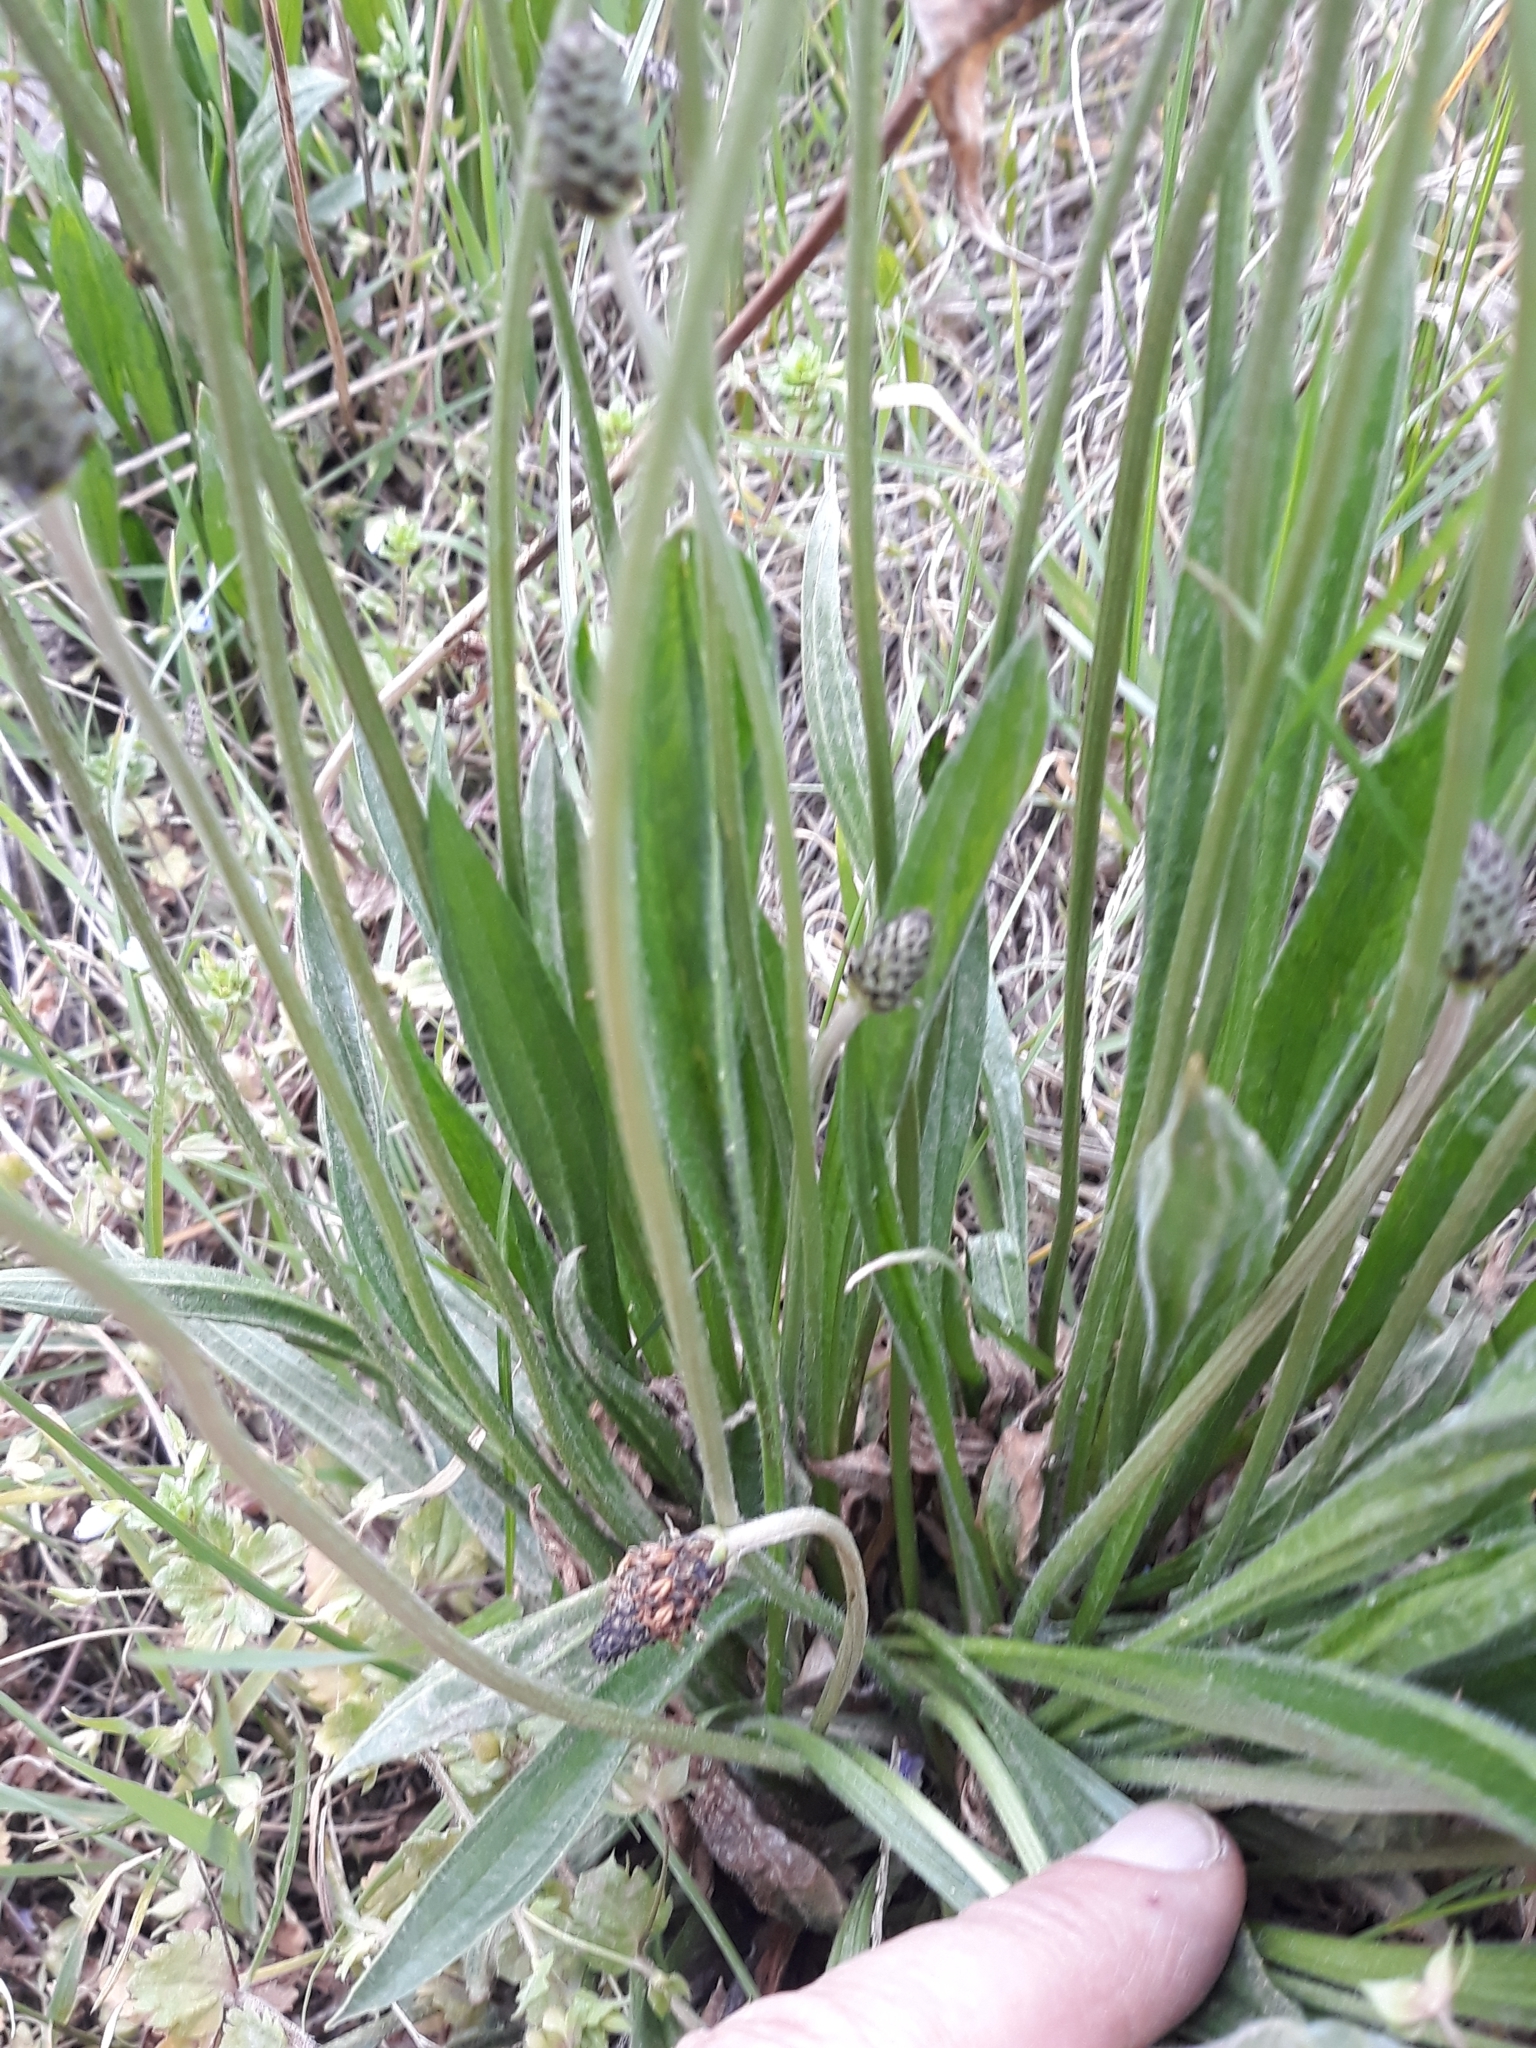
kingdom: Plantae
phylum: Tracheophyta
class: Magnoliopsida
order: Lamiales
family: Plantaginaceae
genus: Plantago
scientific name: Plantago lanceolata
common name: Ribwort plantain
